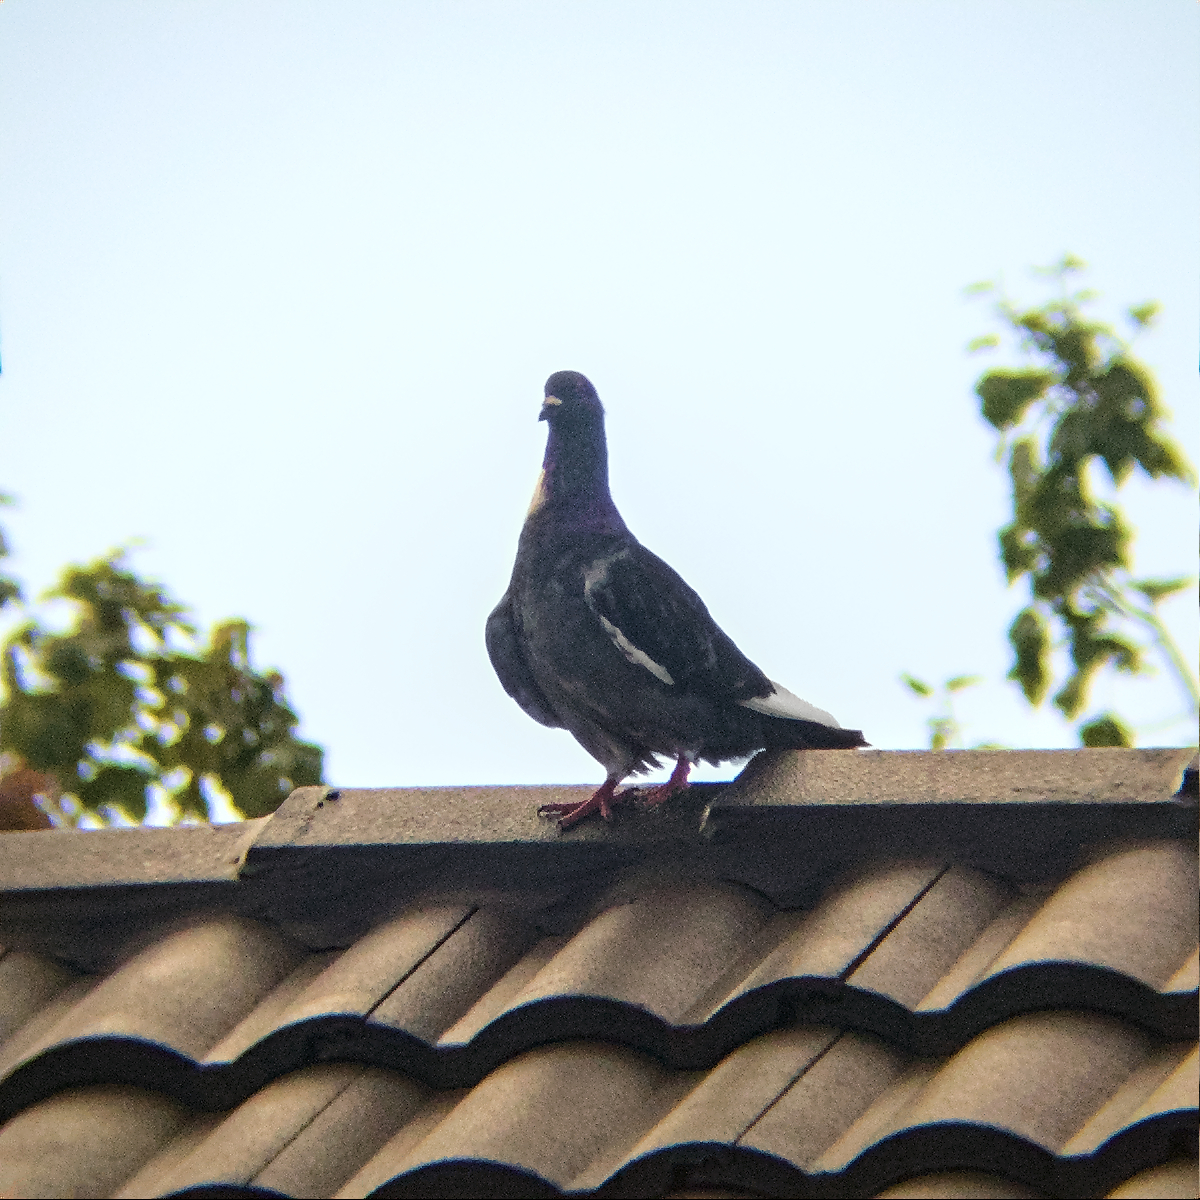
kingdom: Animalia
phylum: Chordata
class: Aves
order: Columbiformes
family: Columbidae
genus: Columba
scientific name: Columba livia
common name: Rock pigeon
